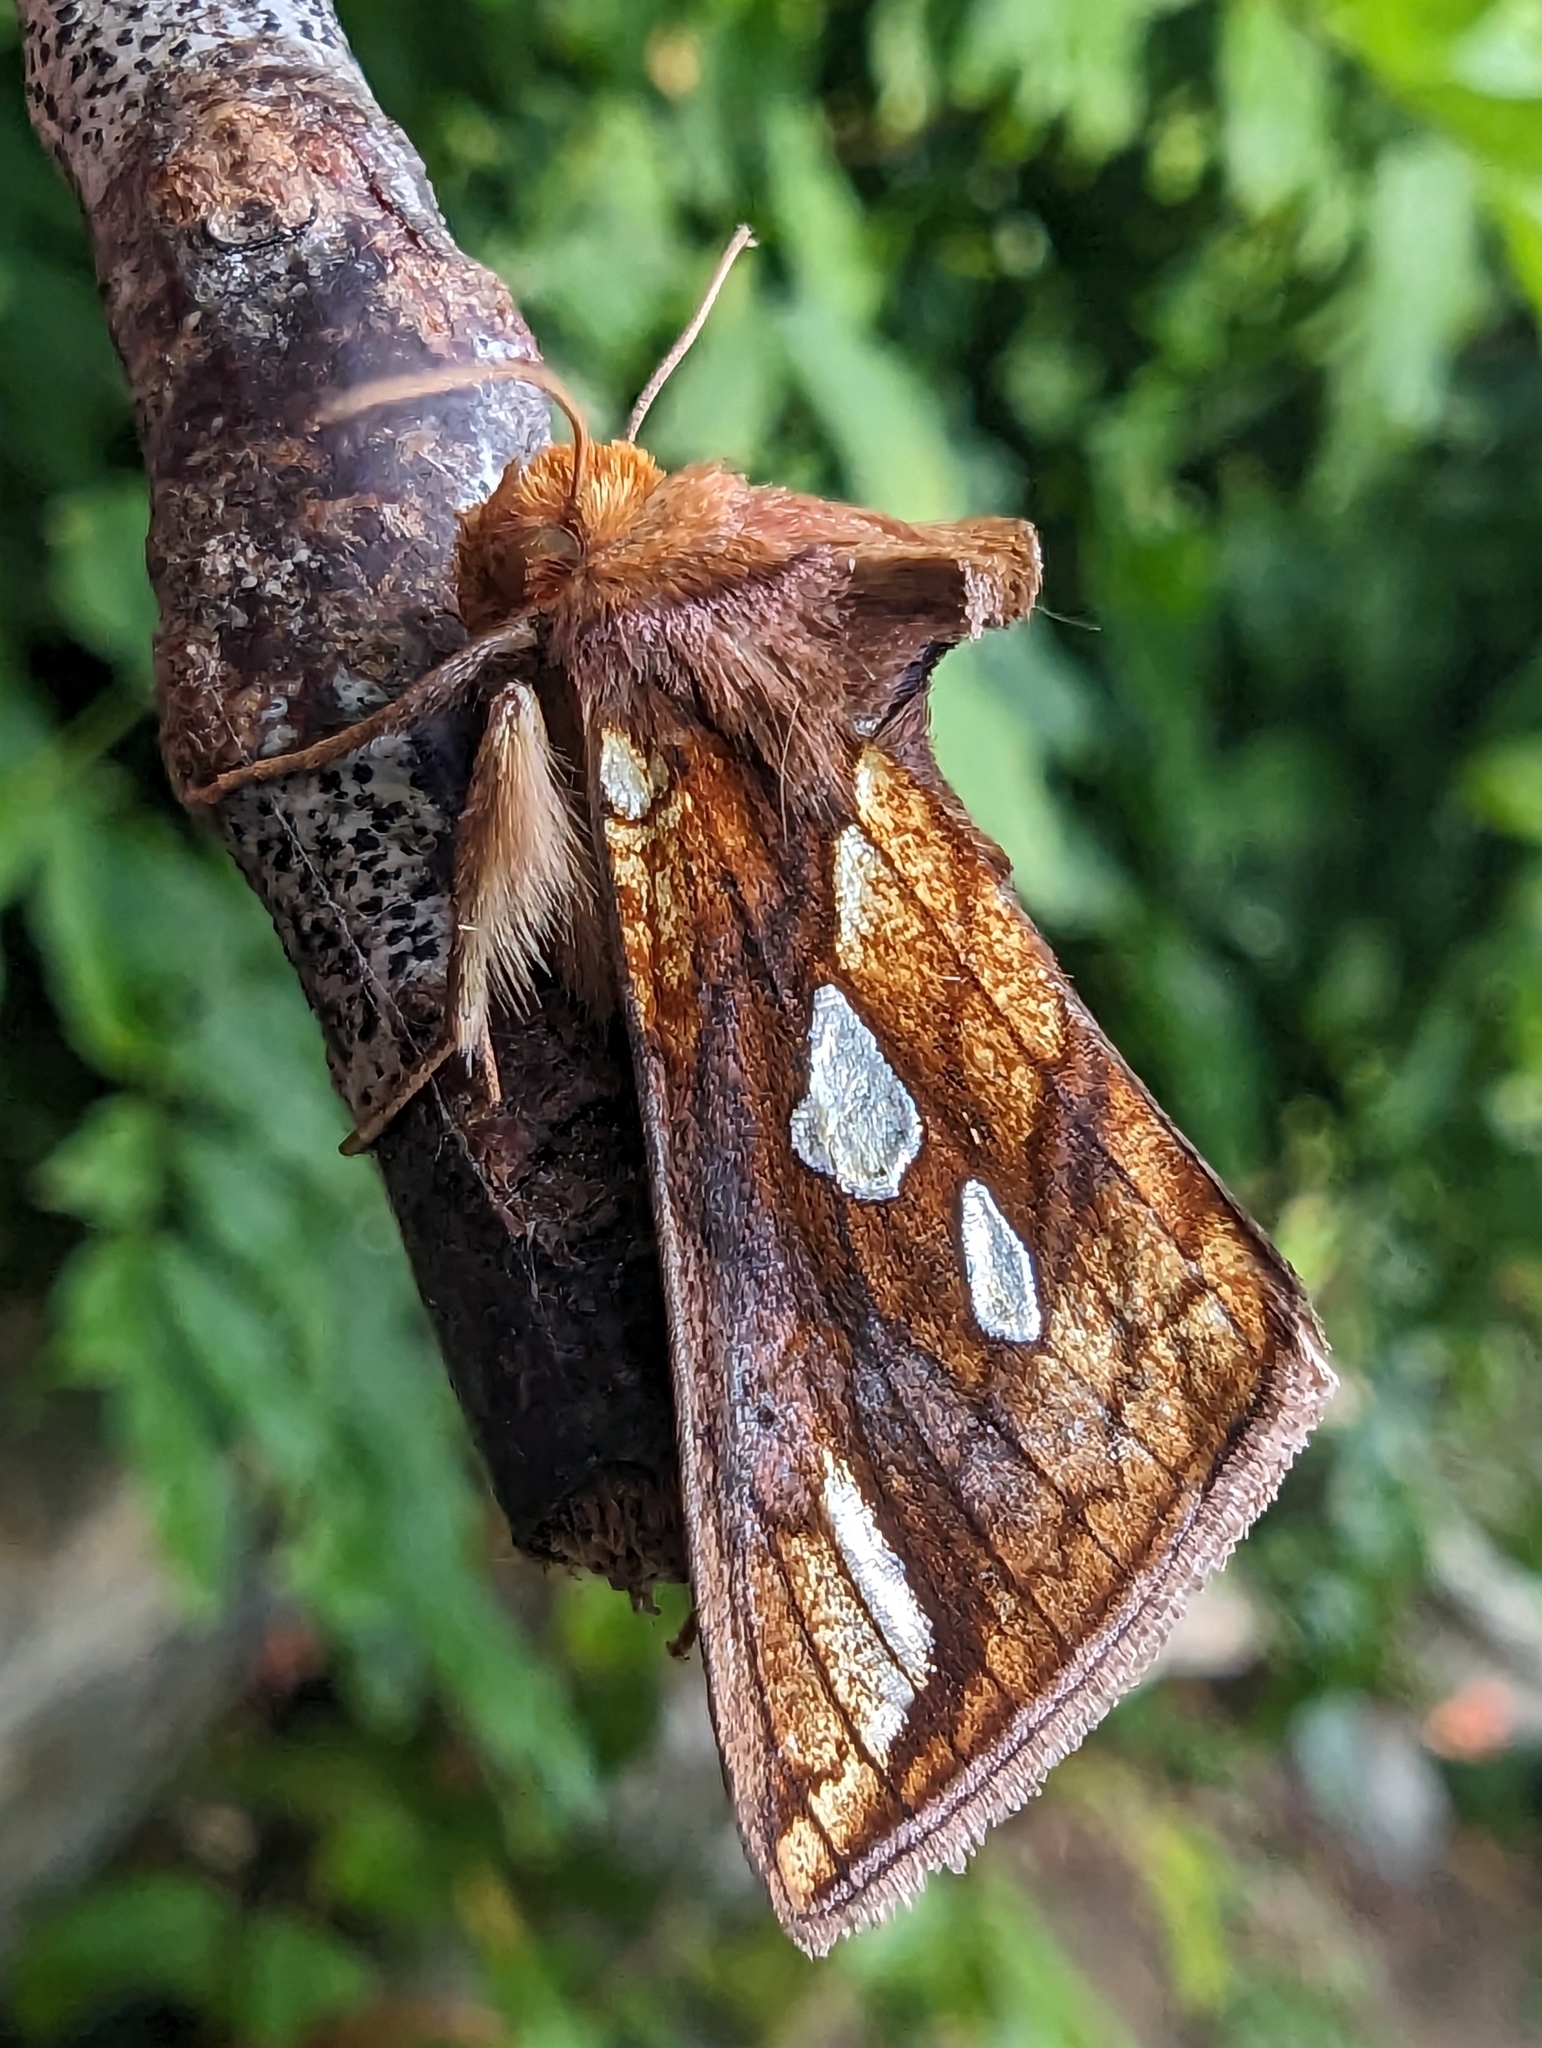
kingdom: Animalia
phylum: Arthropoda
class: Insecta
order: Lepidoptera
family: Noctuidae
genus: Plusia
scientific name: Plusia festucae
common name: Gold spot
